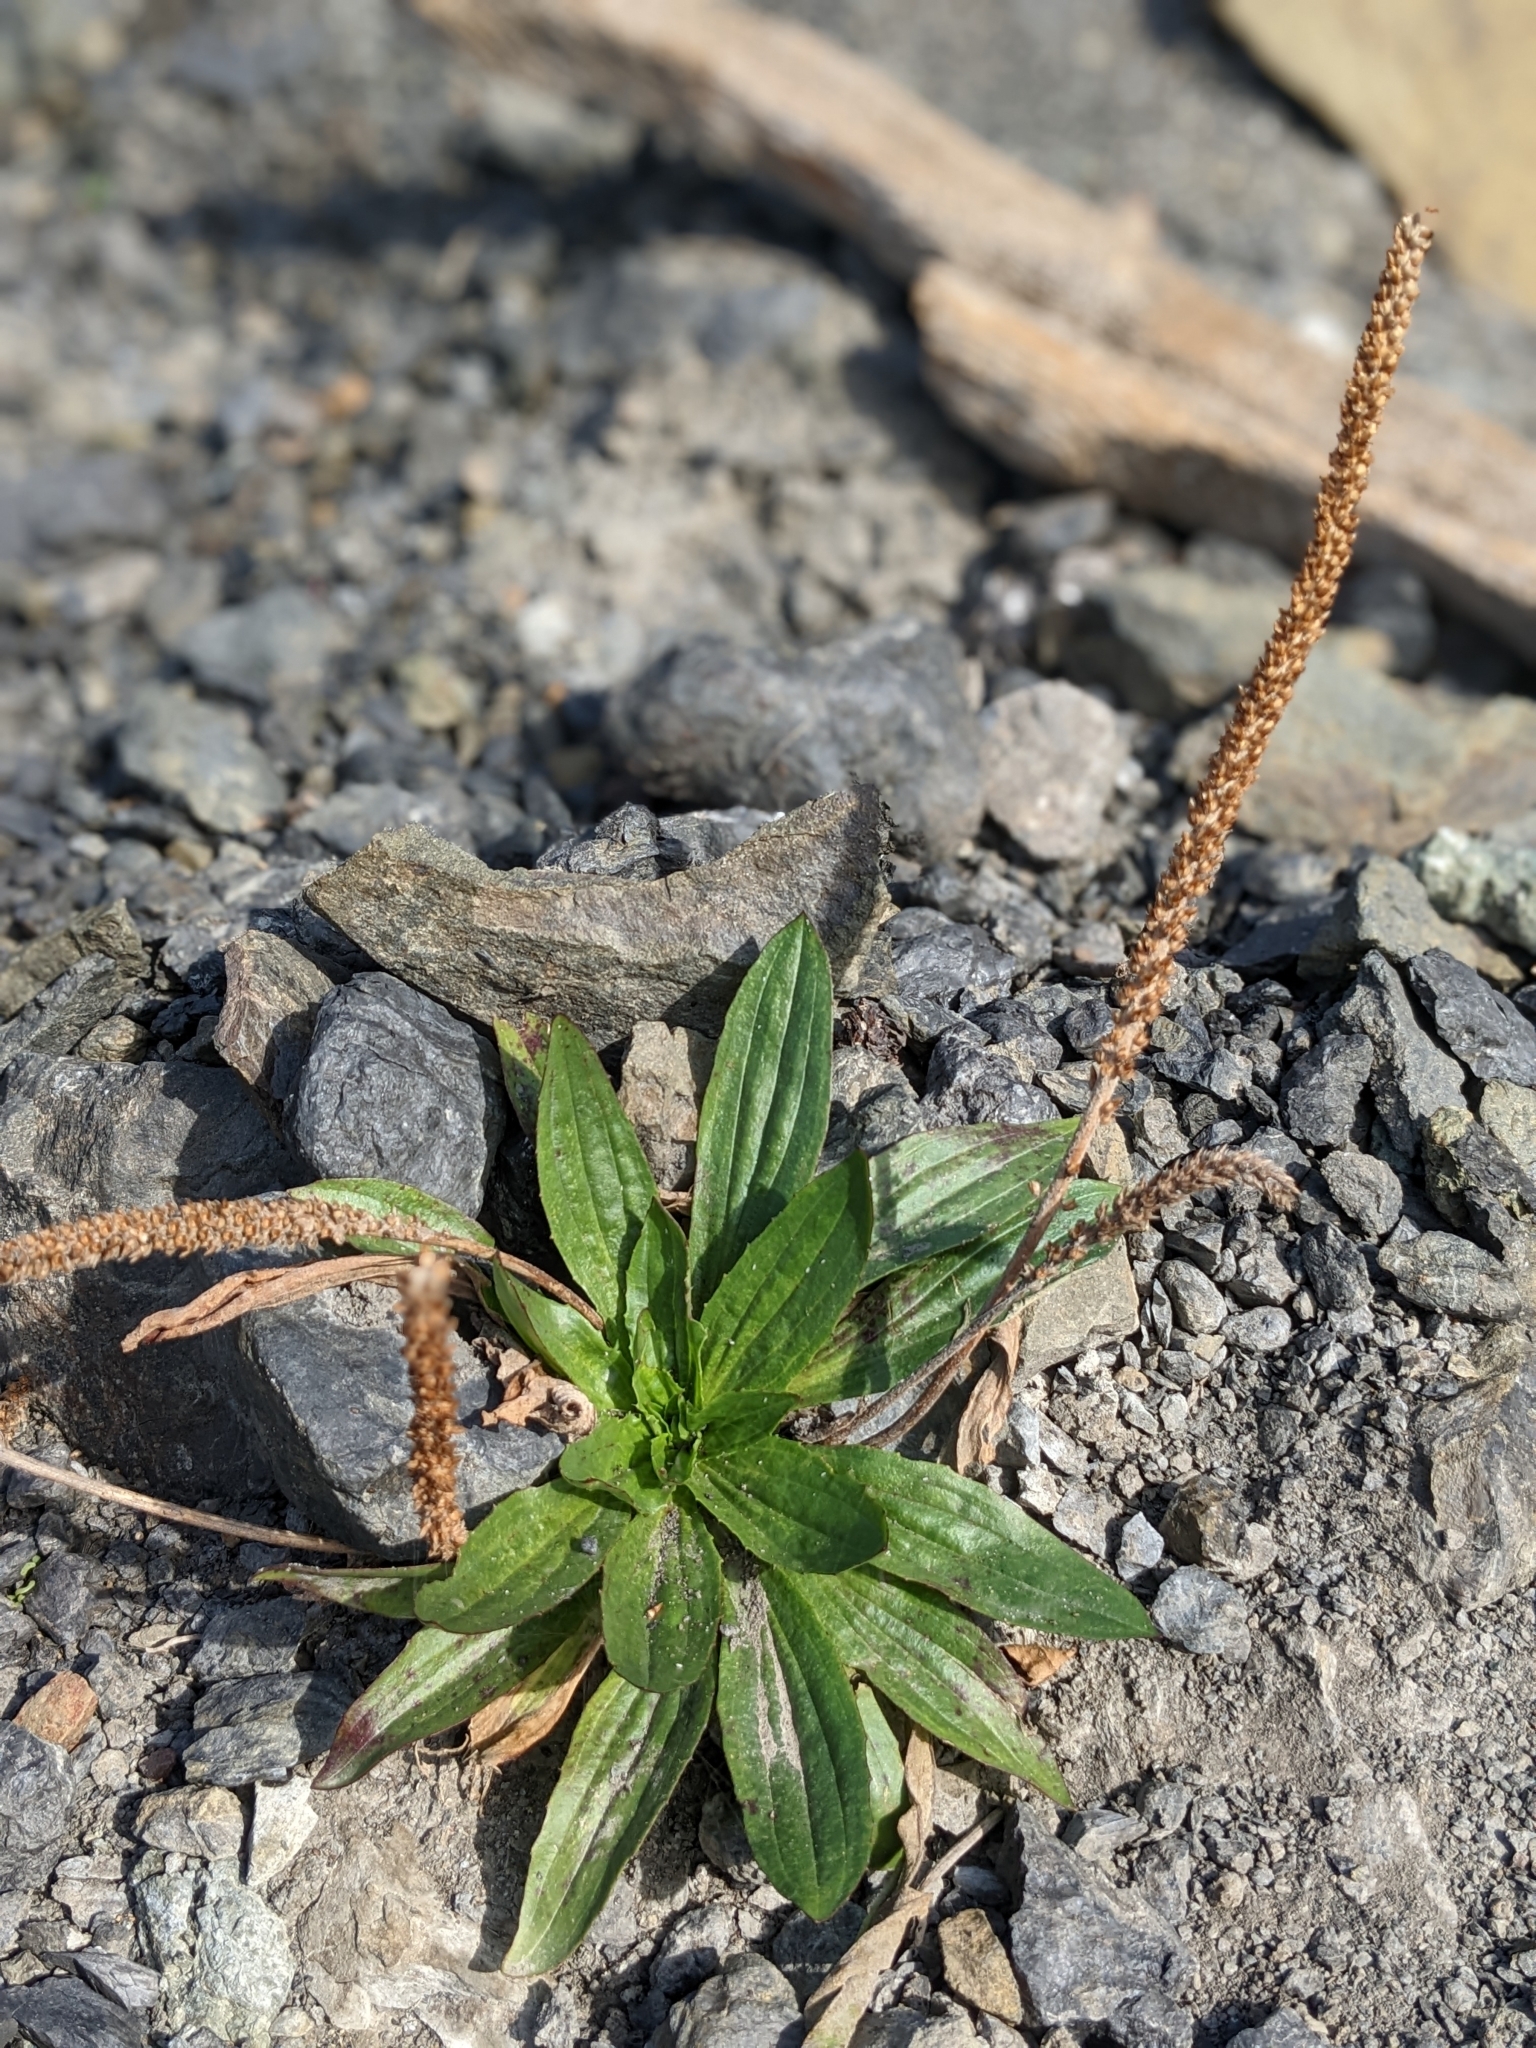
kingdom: Plantae
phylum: Tracheophyta
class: Magnoliopsida
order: Lamiales
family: Plantaginaceae
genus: Plantago
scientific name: Plantago subnuda
